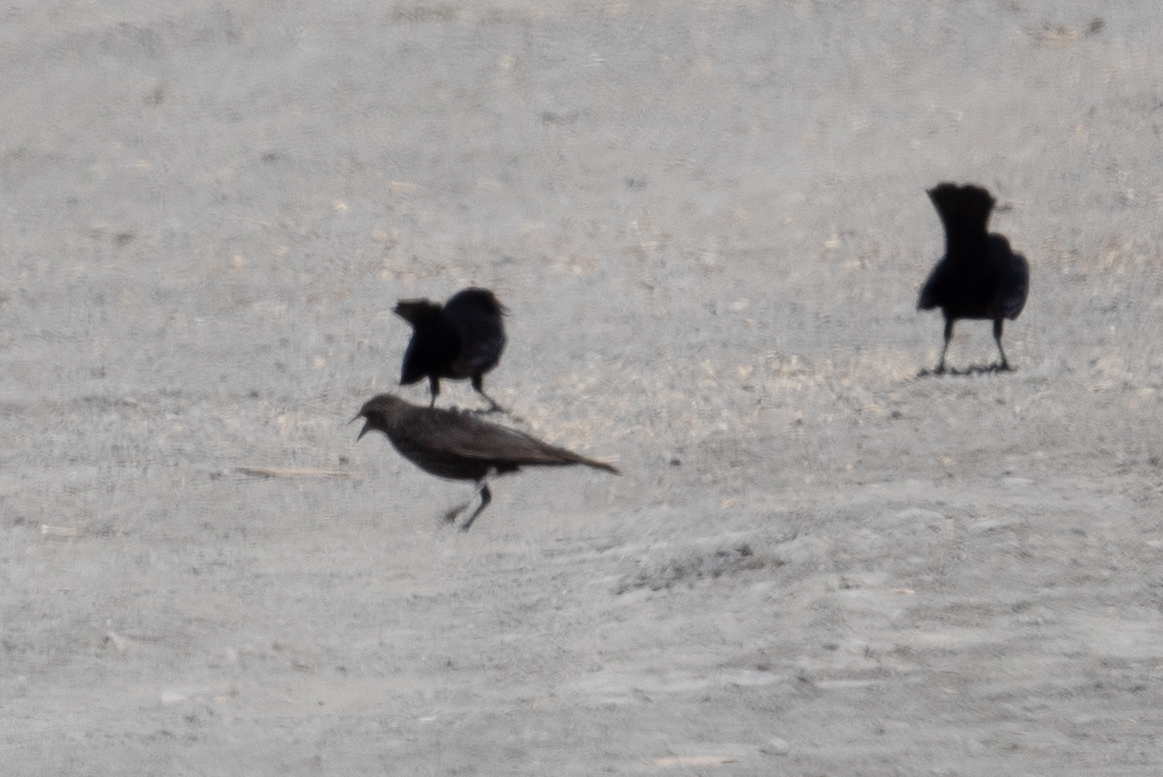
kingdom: Animalia
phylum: Chordata
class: Aves
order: Passeriformes
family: Icteridae
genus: Euphagus
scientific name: Euphagus cyanocephalus
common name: Brewer's blackbird
